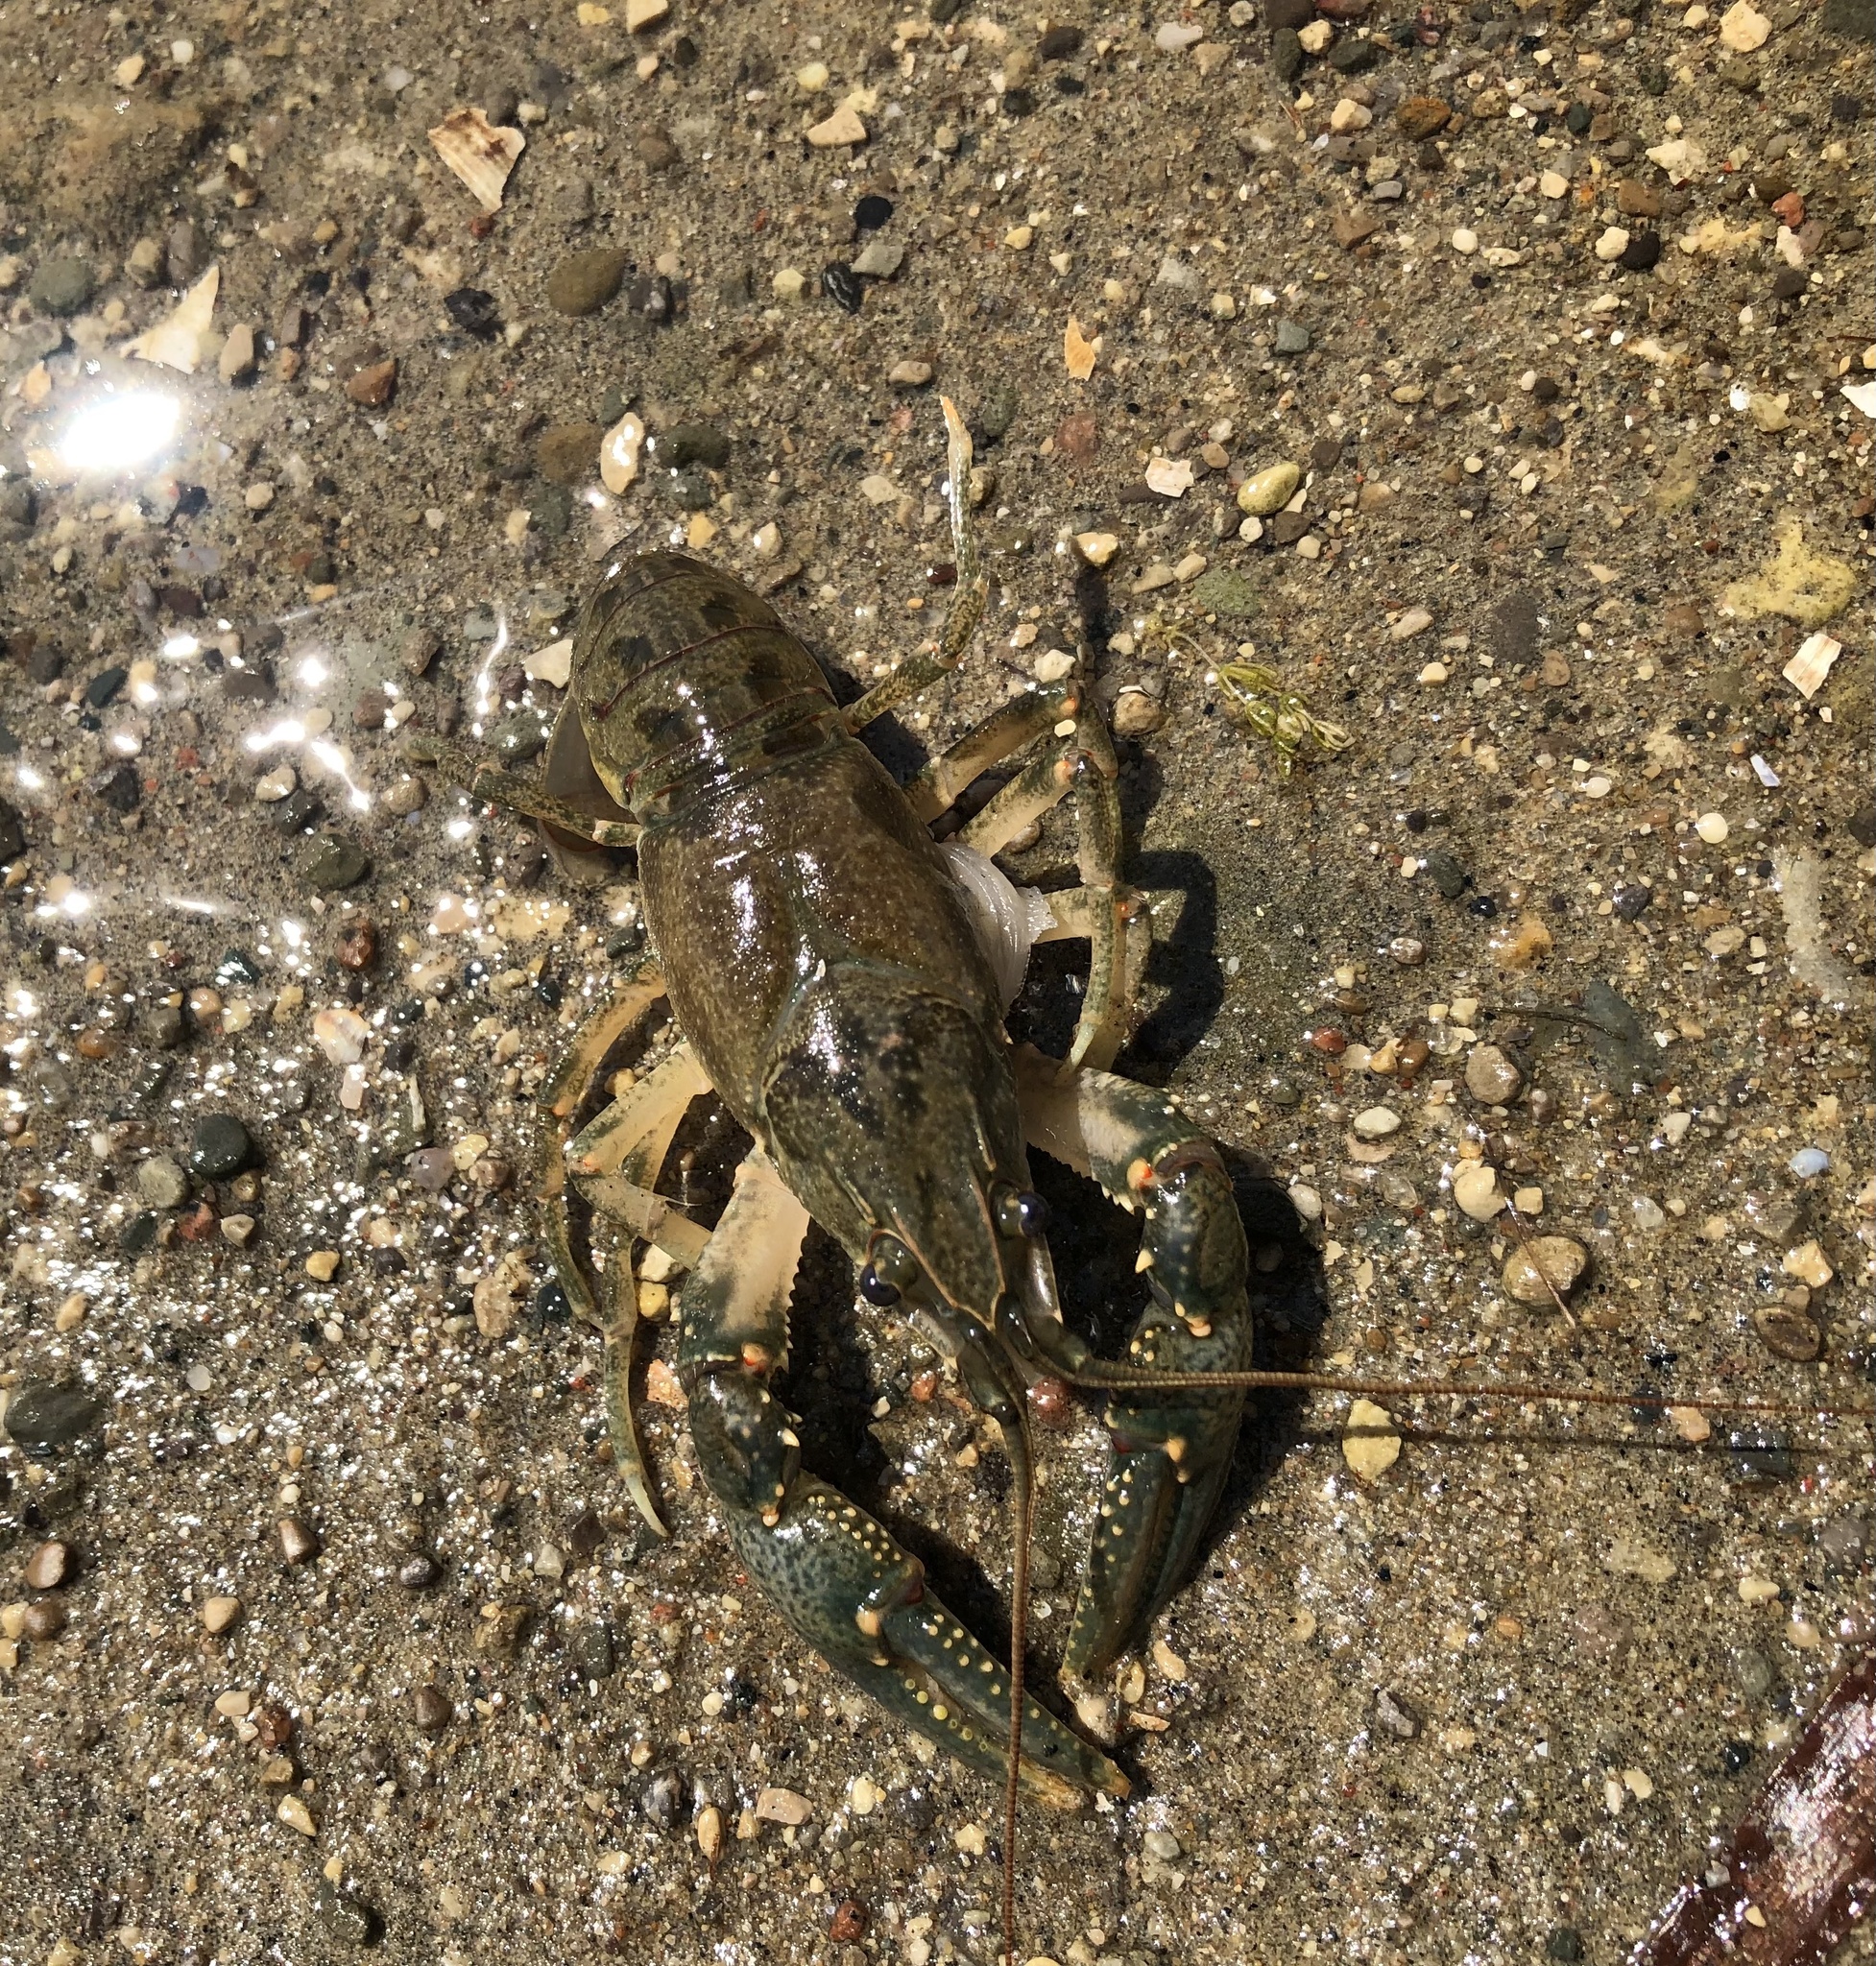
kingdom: Animalia
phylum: Arthropoda
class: Malacostraca
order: Decapoda
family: Cambaridae
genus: Faxonius
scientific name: Faxonius virilis
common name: Virile crayfish
